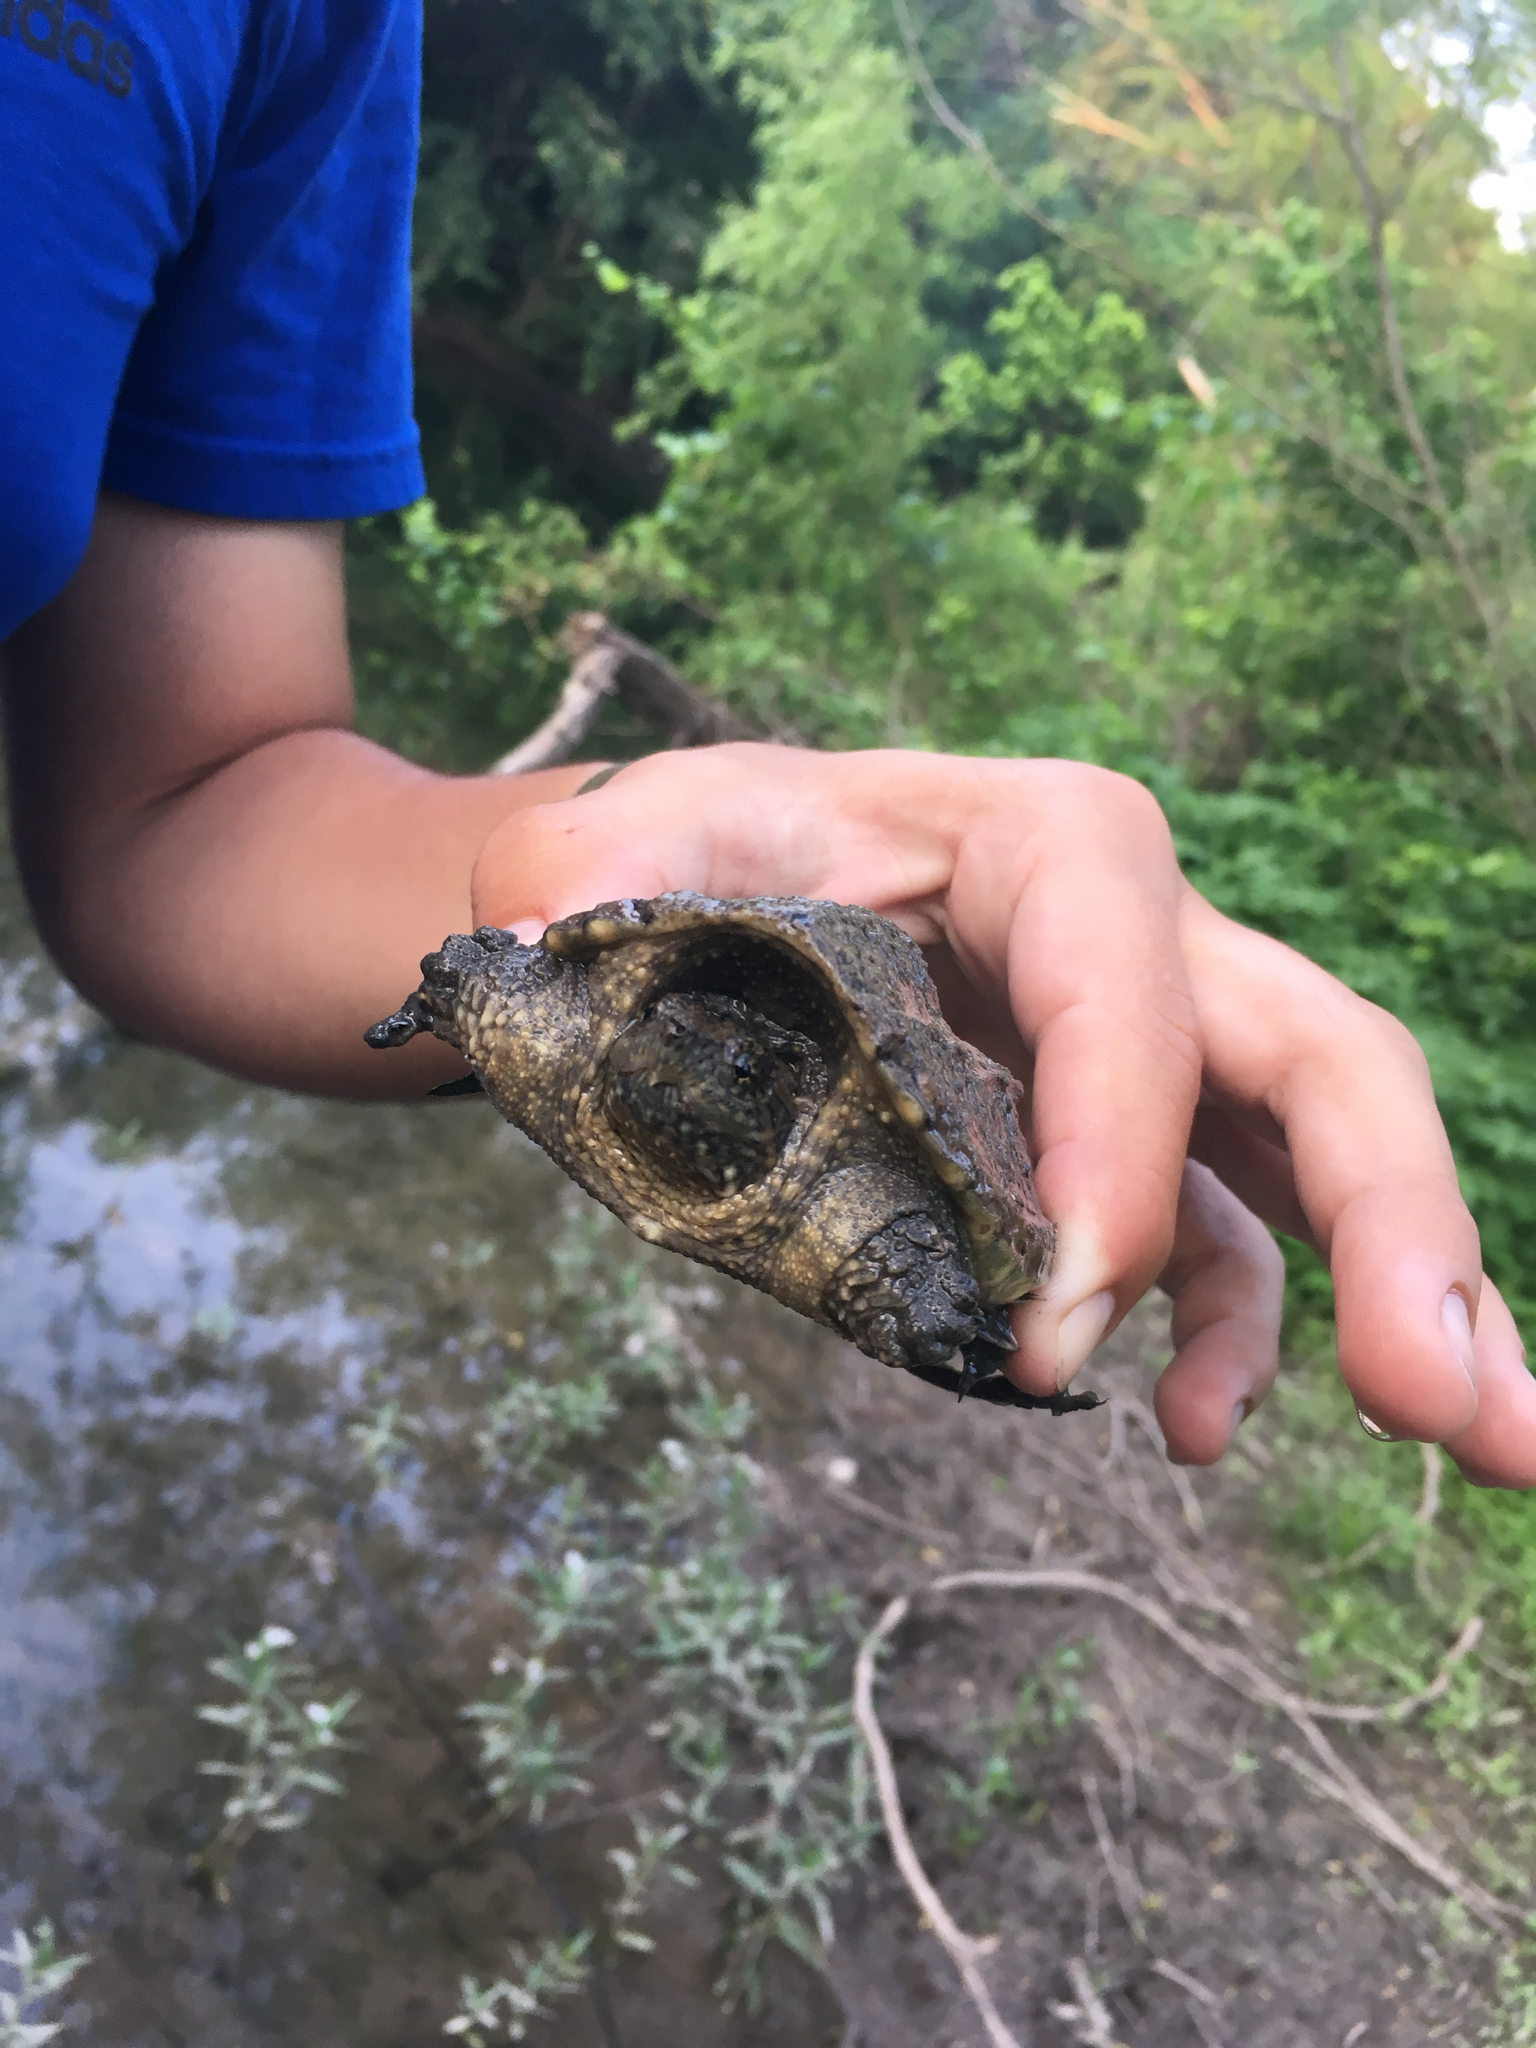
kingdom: Animalia
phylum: Chordata
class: Testudines
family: Chelydridae
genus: Chelydra
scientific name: Chelydra serpentina
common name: Common snapping turtle
